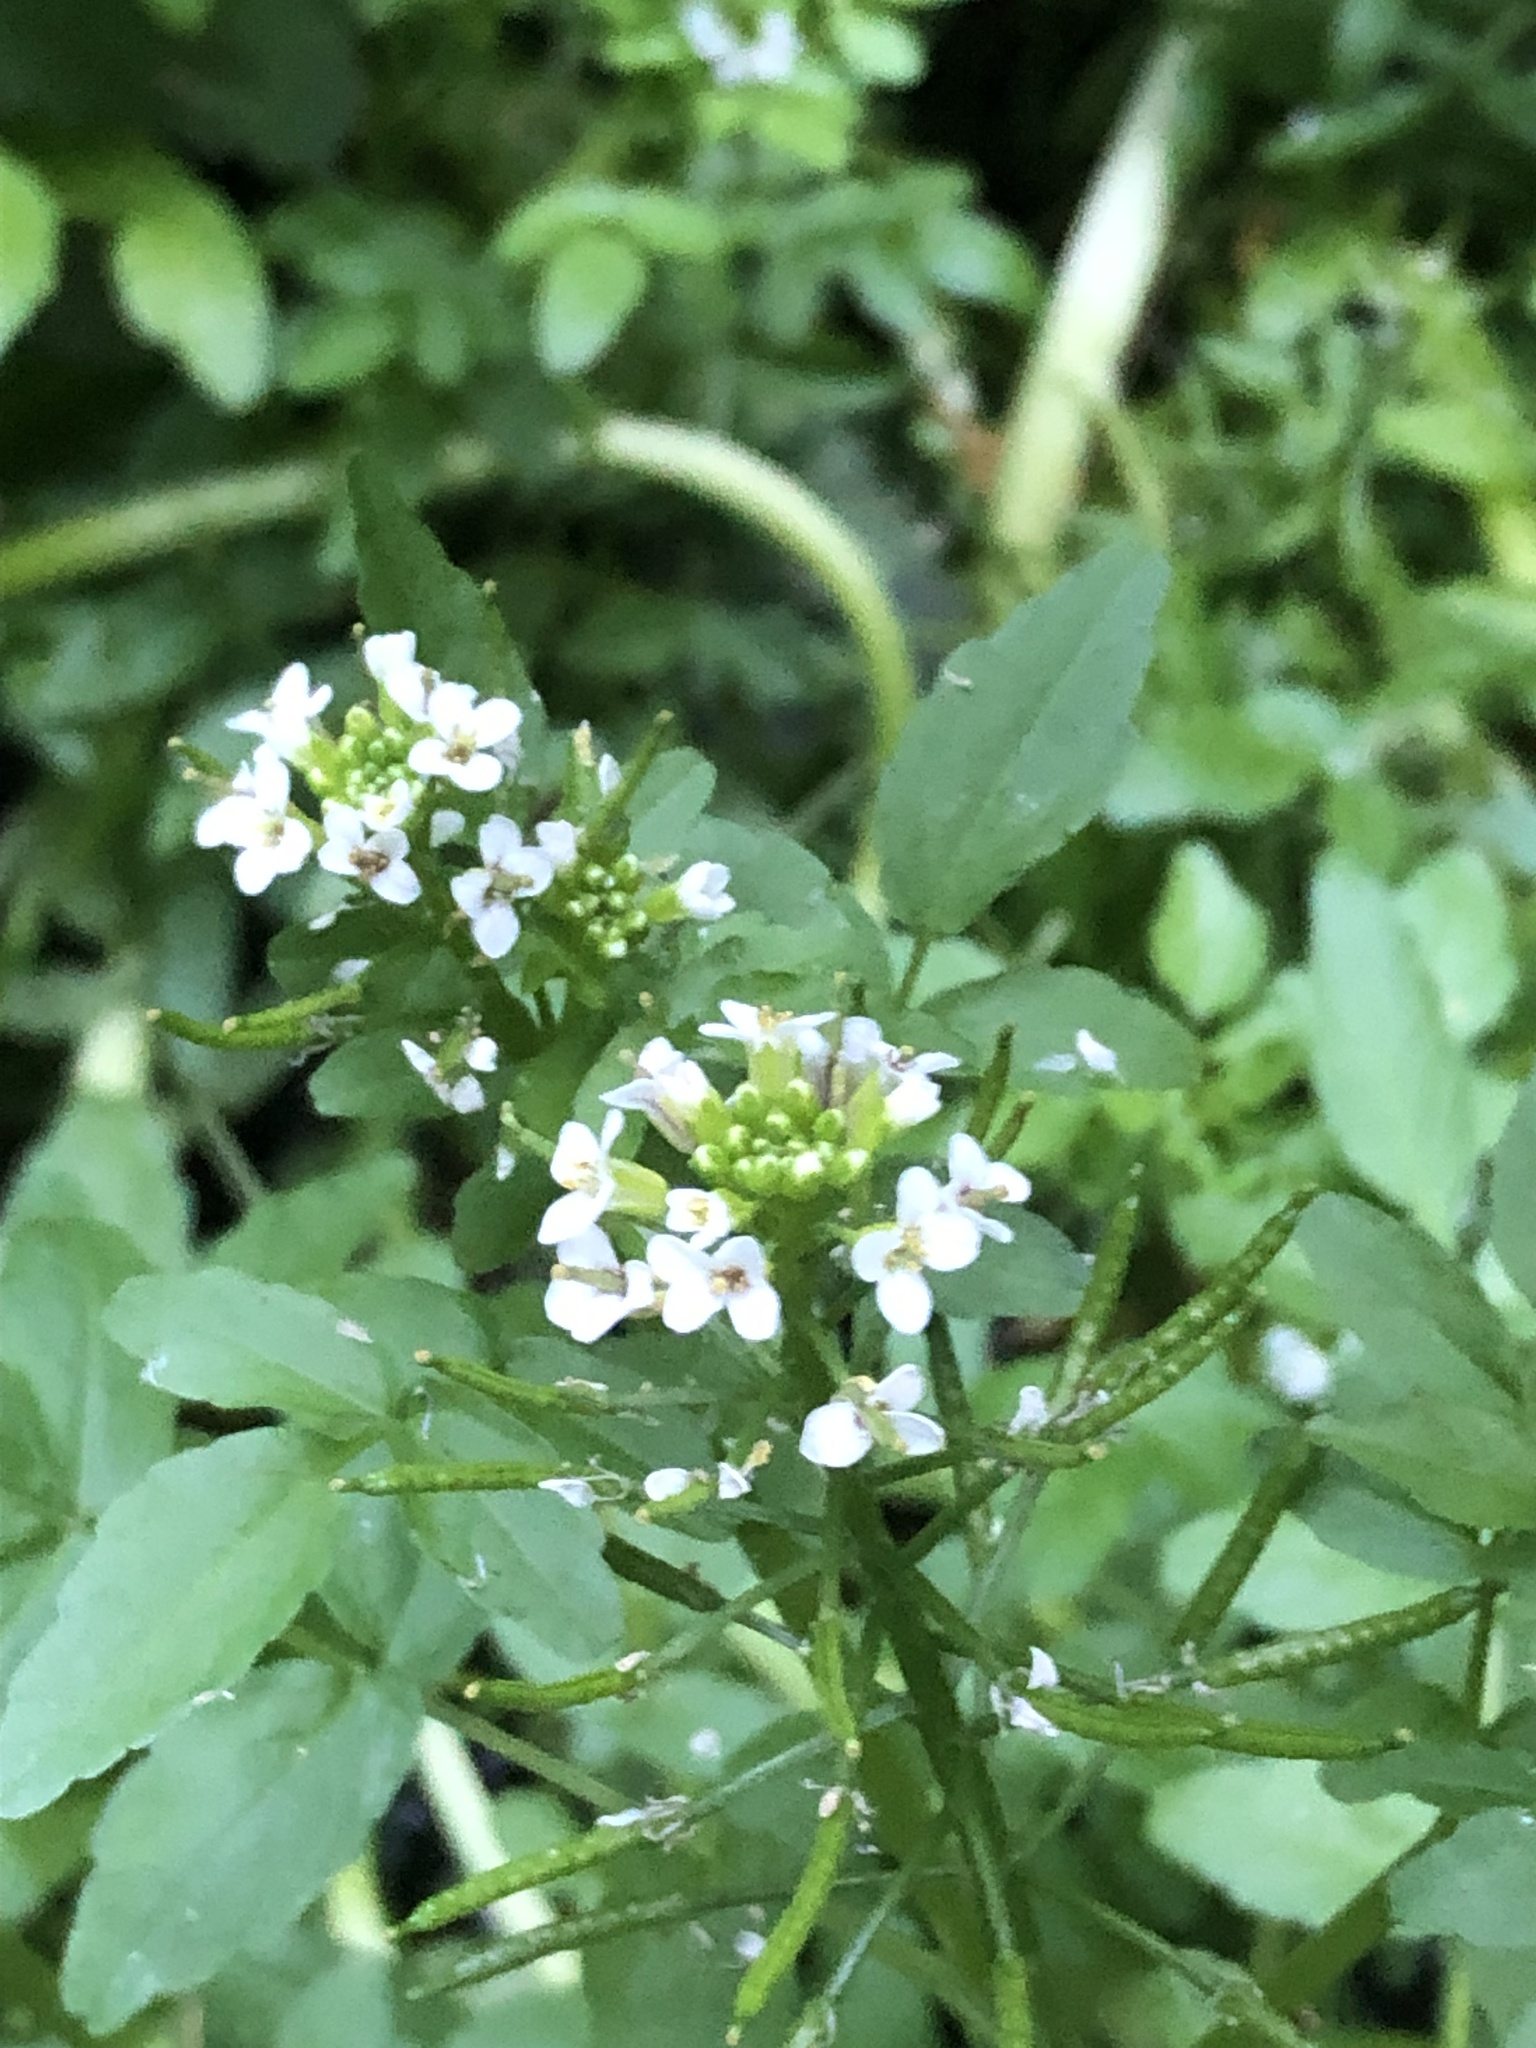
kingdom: Plantae
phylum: Tracheophyta
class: Magnoliopsida
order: Brassicales
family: Brassicaceae
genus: Nasturtium
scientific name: Nasturtium officinale
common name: Watercress
